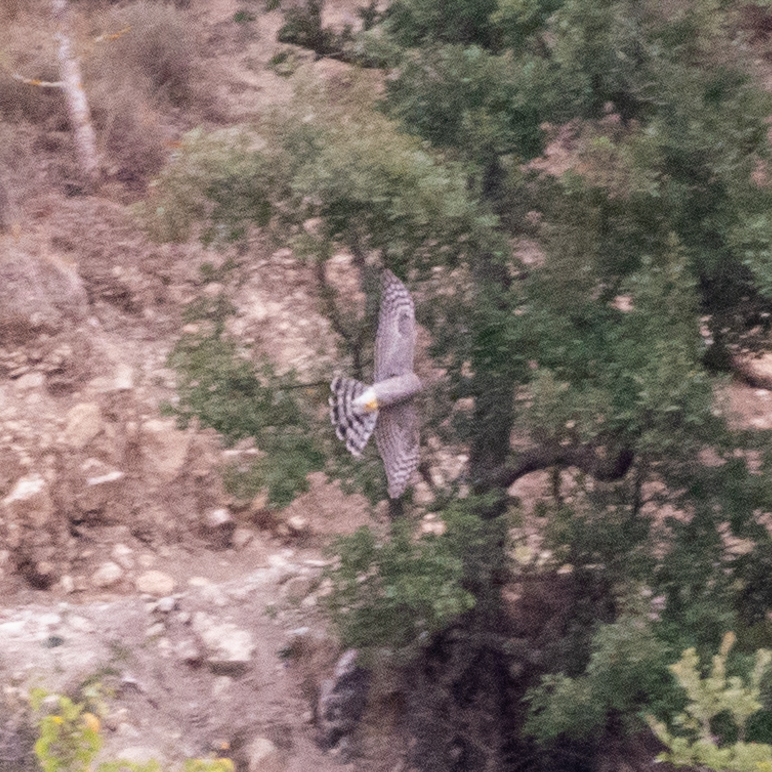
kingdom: Animalia
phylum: Chordata
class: Aves
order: Accipitriformes
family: Accipitridae
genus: Accipiter
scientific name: Accipiter nisus
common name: Eurasian sparrowhawk
